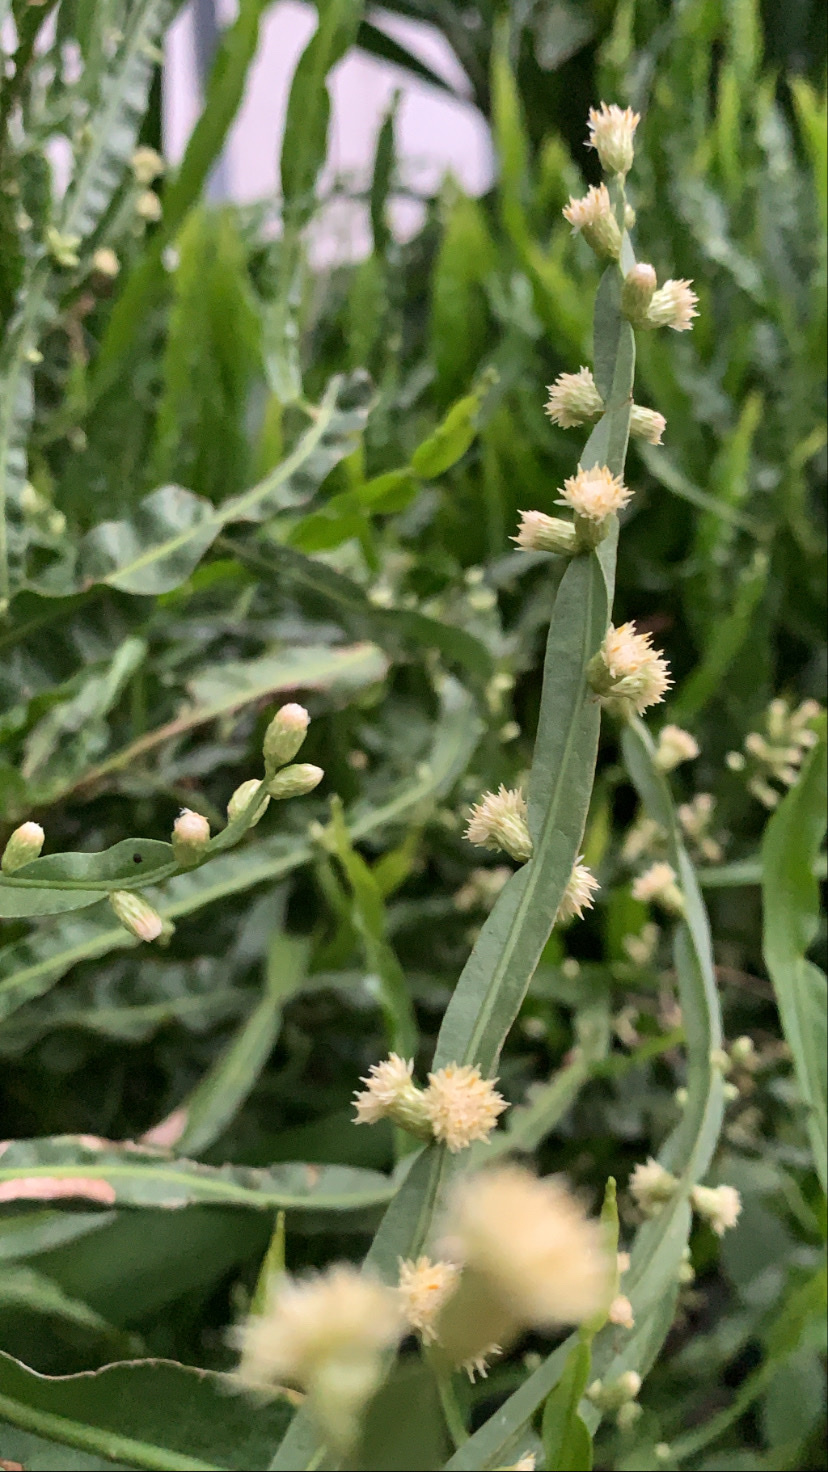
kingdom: Plantae
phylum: Tracheophyta
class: Magnoliopsida
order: Asterales
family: Asteraceae
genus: Baccharis
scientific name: Baccharis trimera
